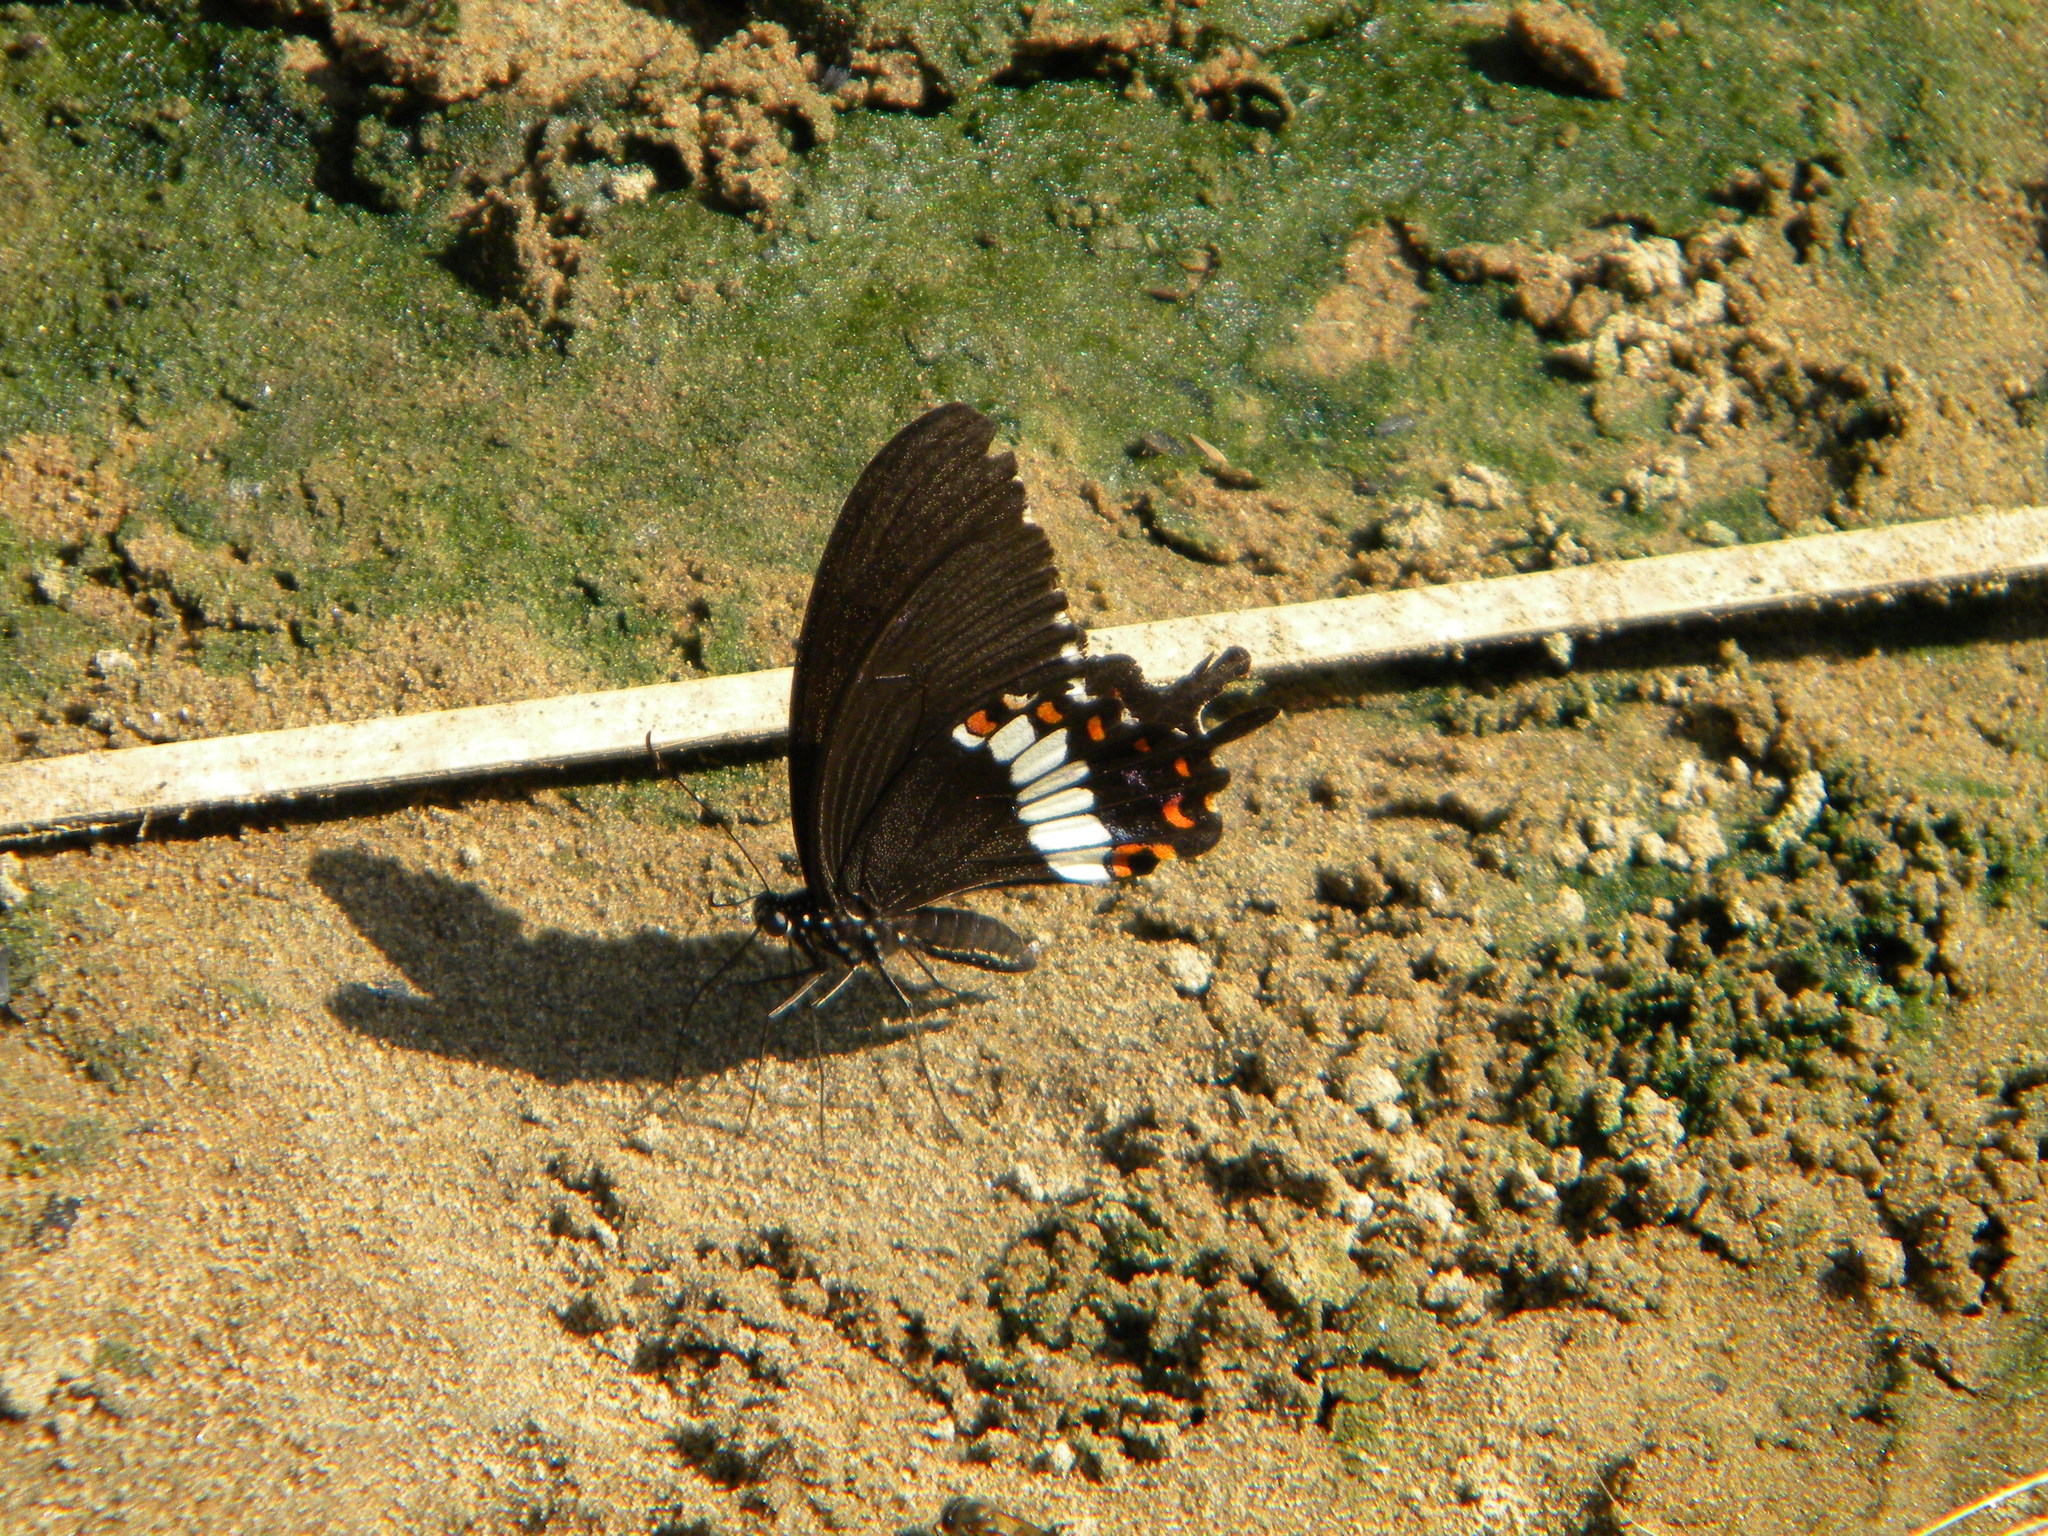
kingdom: Animalia
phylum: Arthropoda
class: Insecta
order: Lepidoptera
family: Papilionidae
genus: Papilio
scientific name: Papilio polytes
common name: Common mormon
